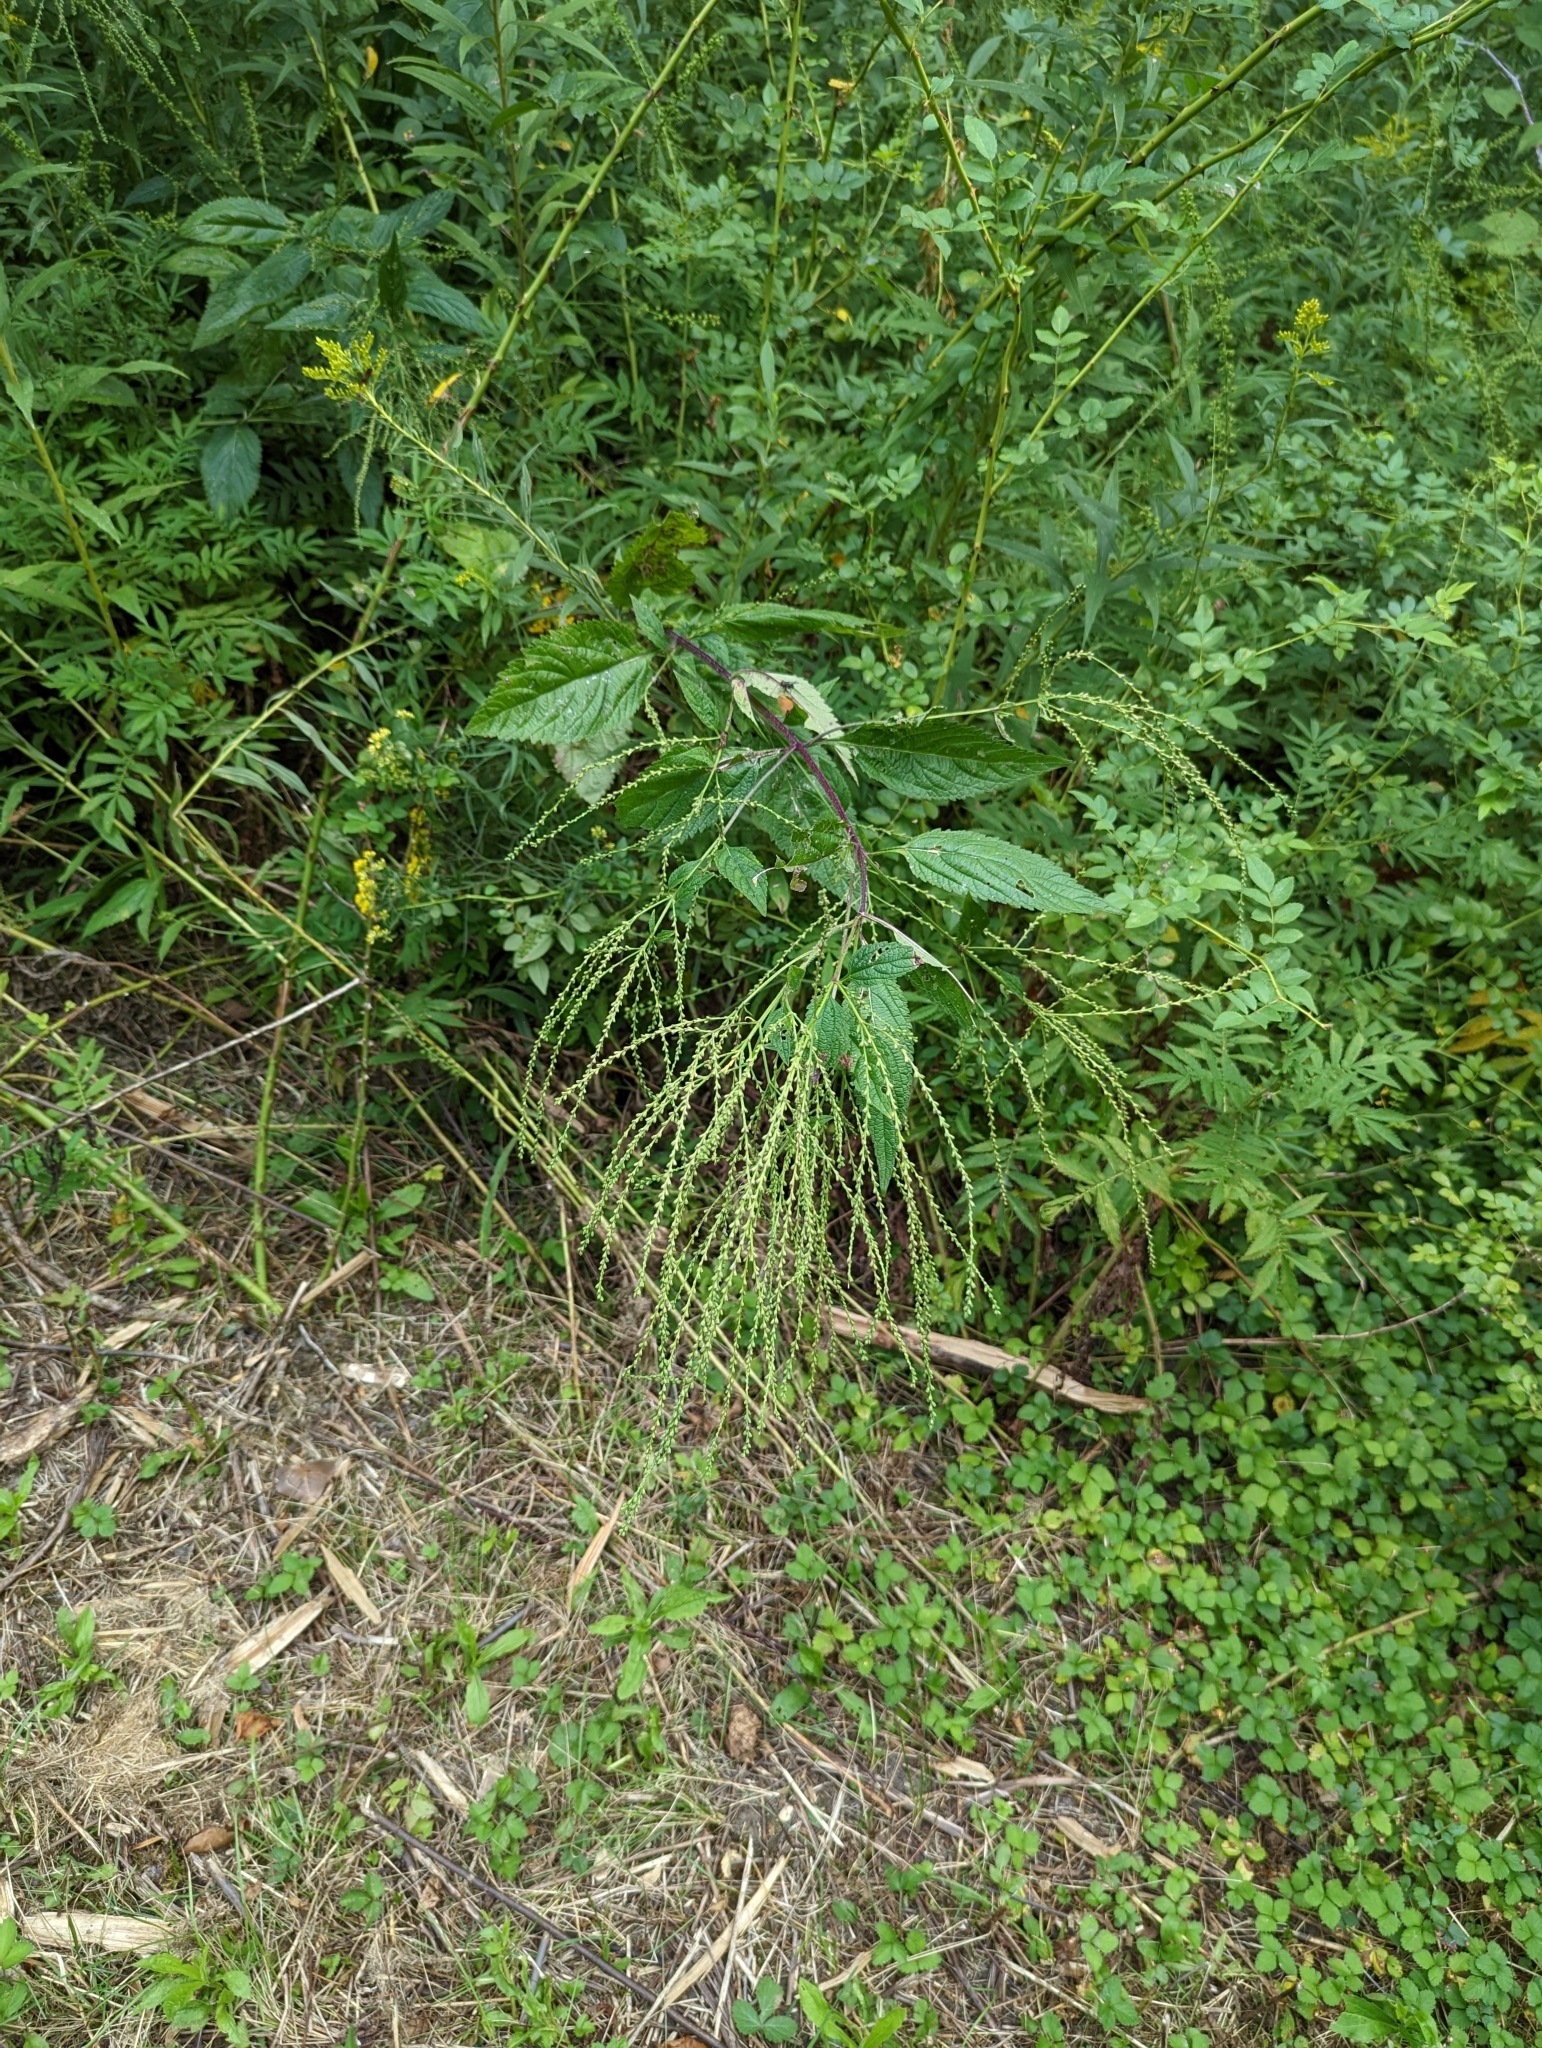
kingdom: Plantae
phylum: Tracheophyta
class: Magnoliopsida
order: Lamiales
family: Verbenaceae
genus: Verbena
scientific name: Verbena urticifolia
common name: Nettle-leaved vervain
